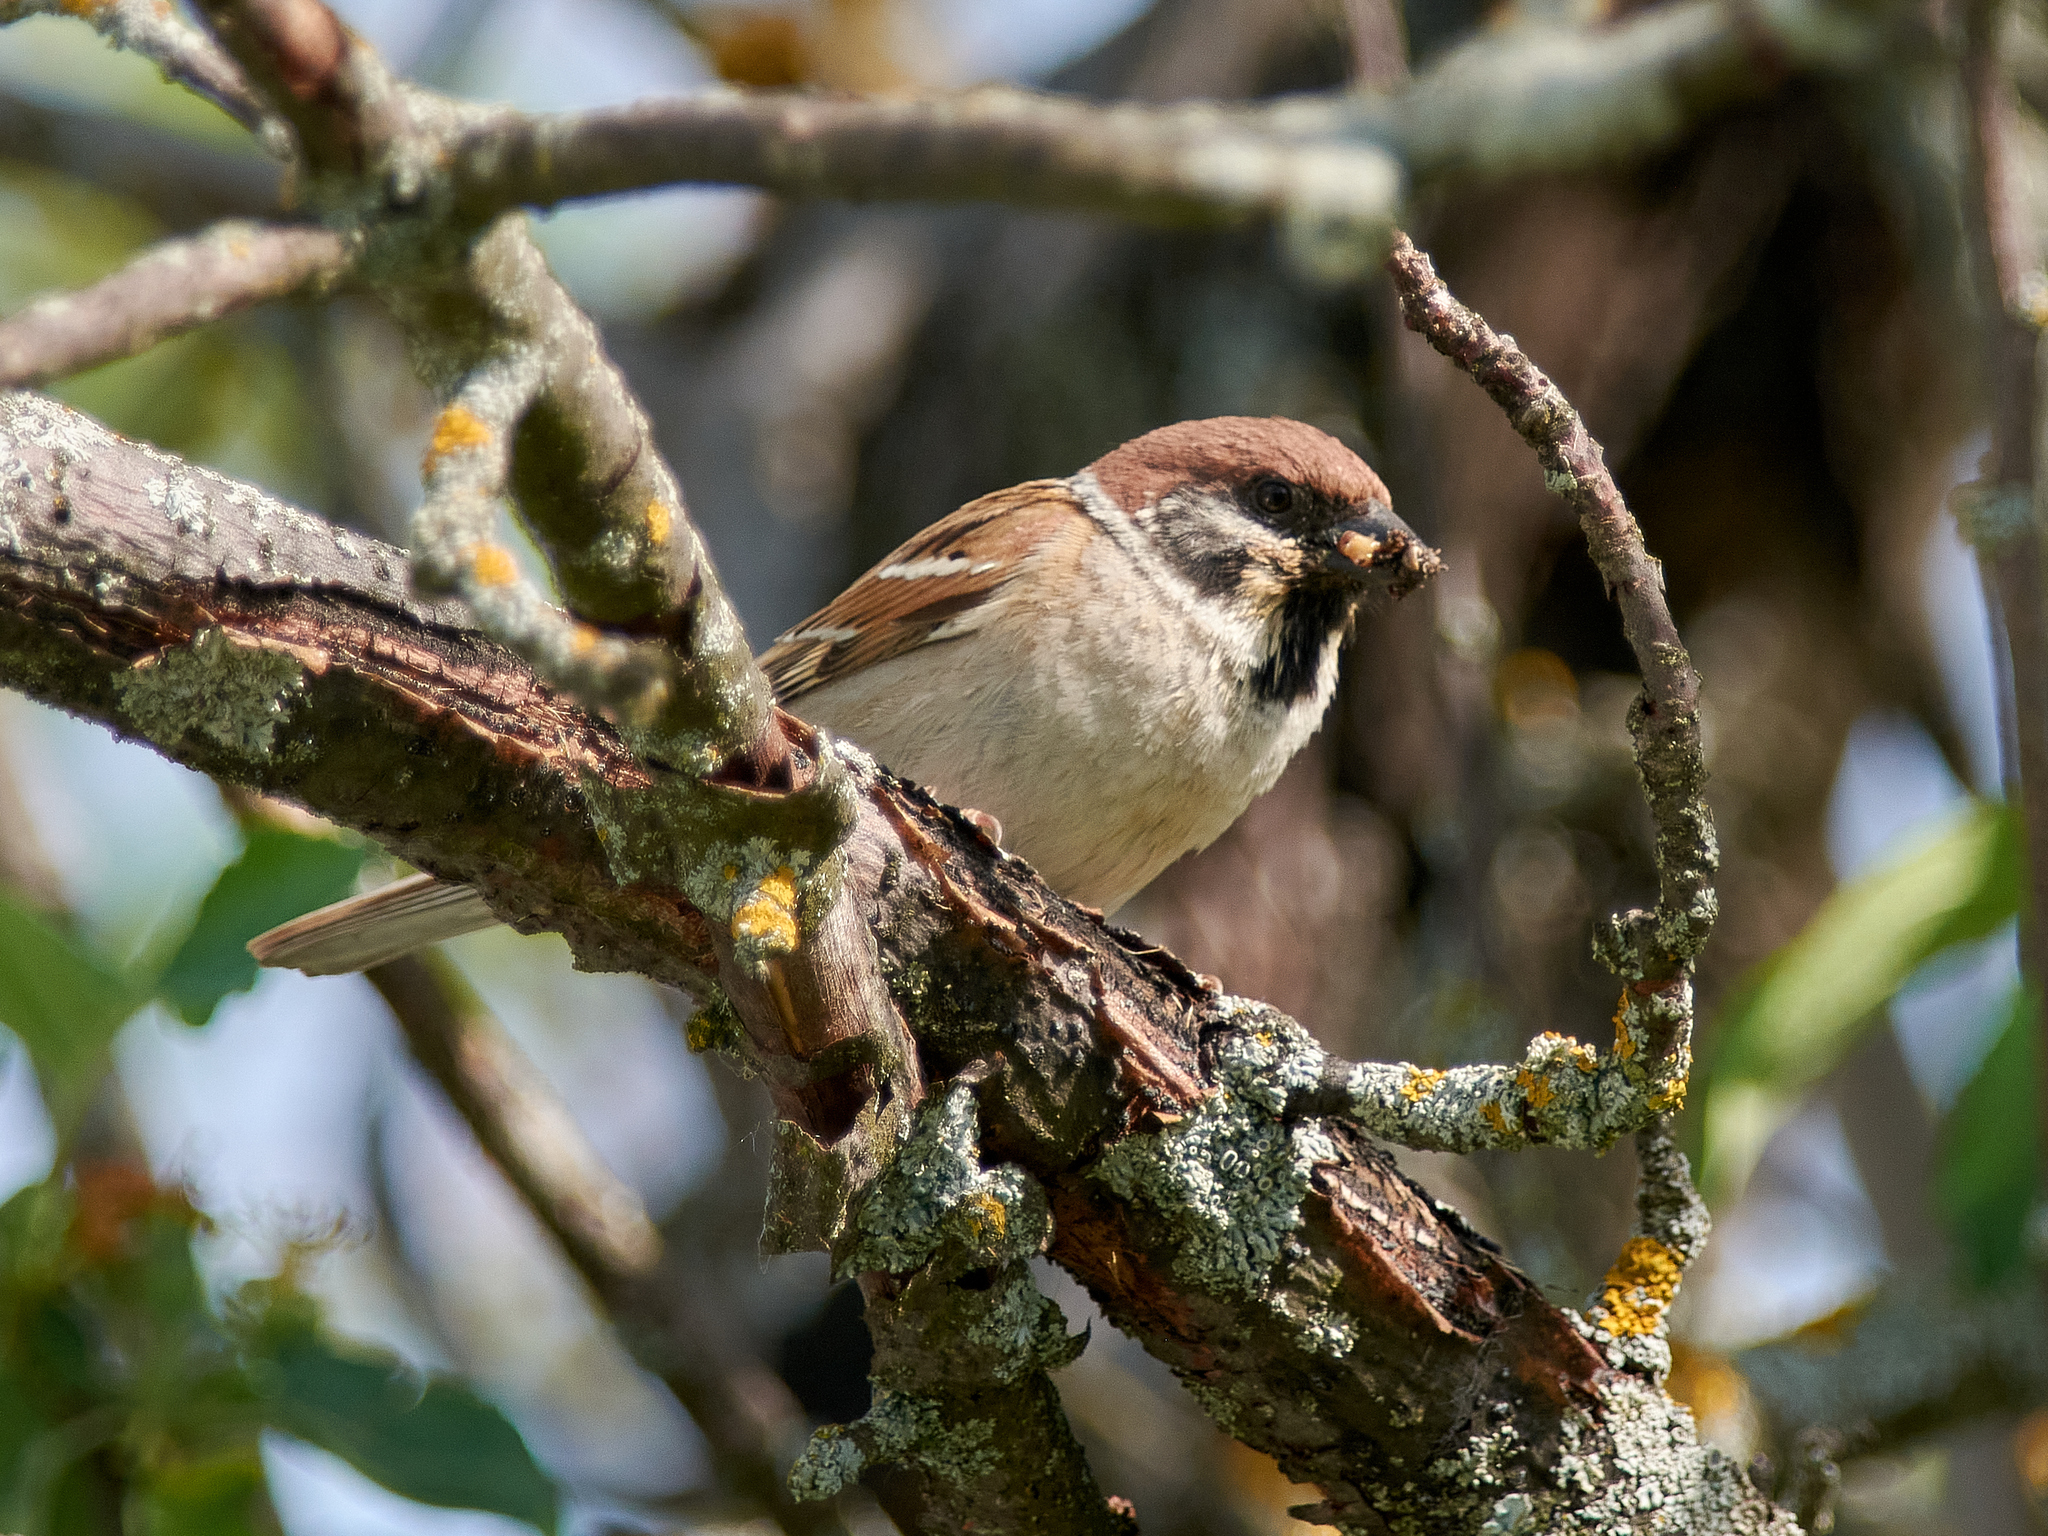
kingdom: Animalia
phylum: Chordata
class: Aves
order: Passeriformes
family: Passeridae
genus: Passer
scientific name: Passer montanus
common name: Eurasian tree sparrow
